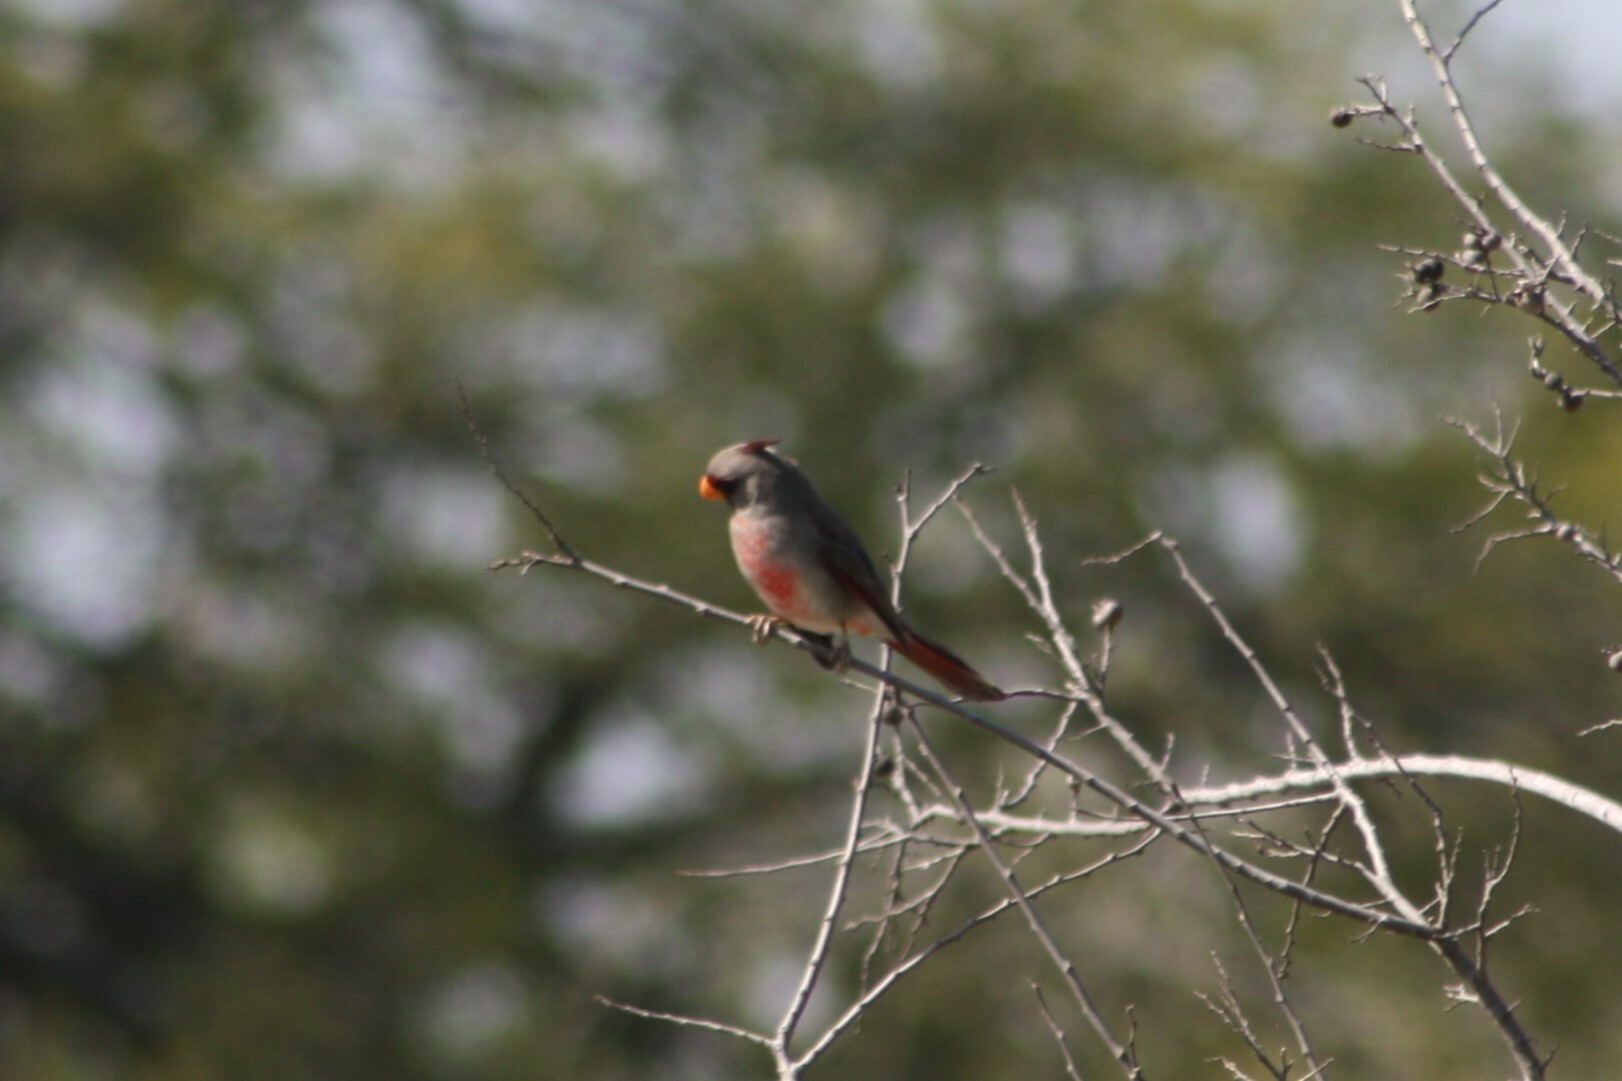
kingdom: Animalia
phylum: Chordata
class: Aves
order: Passeriformes
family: Cardinalidae
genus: Cardinalis
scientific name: Cardinalis sinuatus
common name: Pyrrhuloxia
